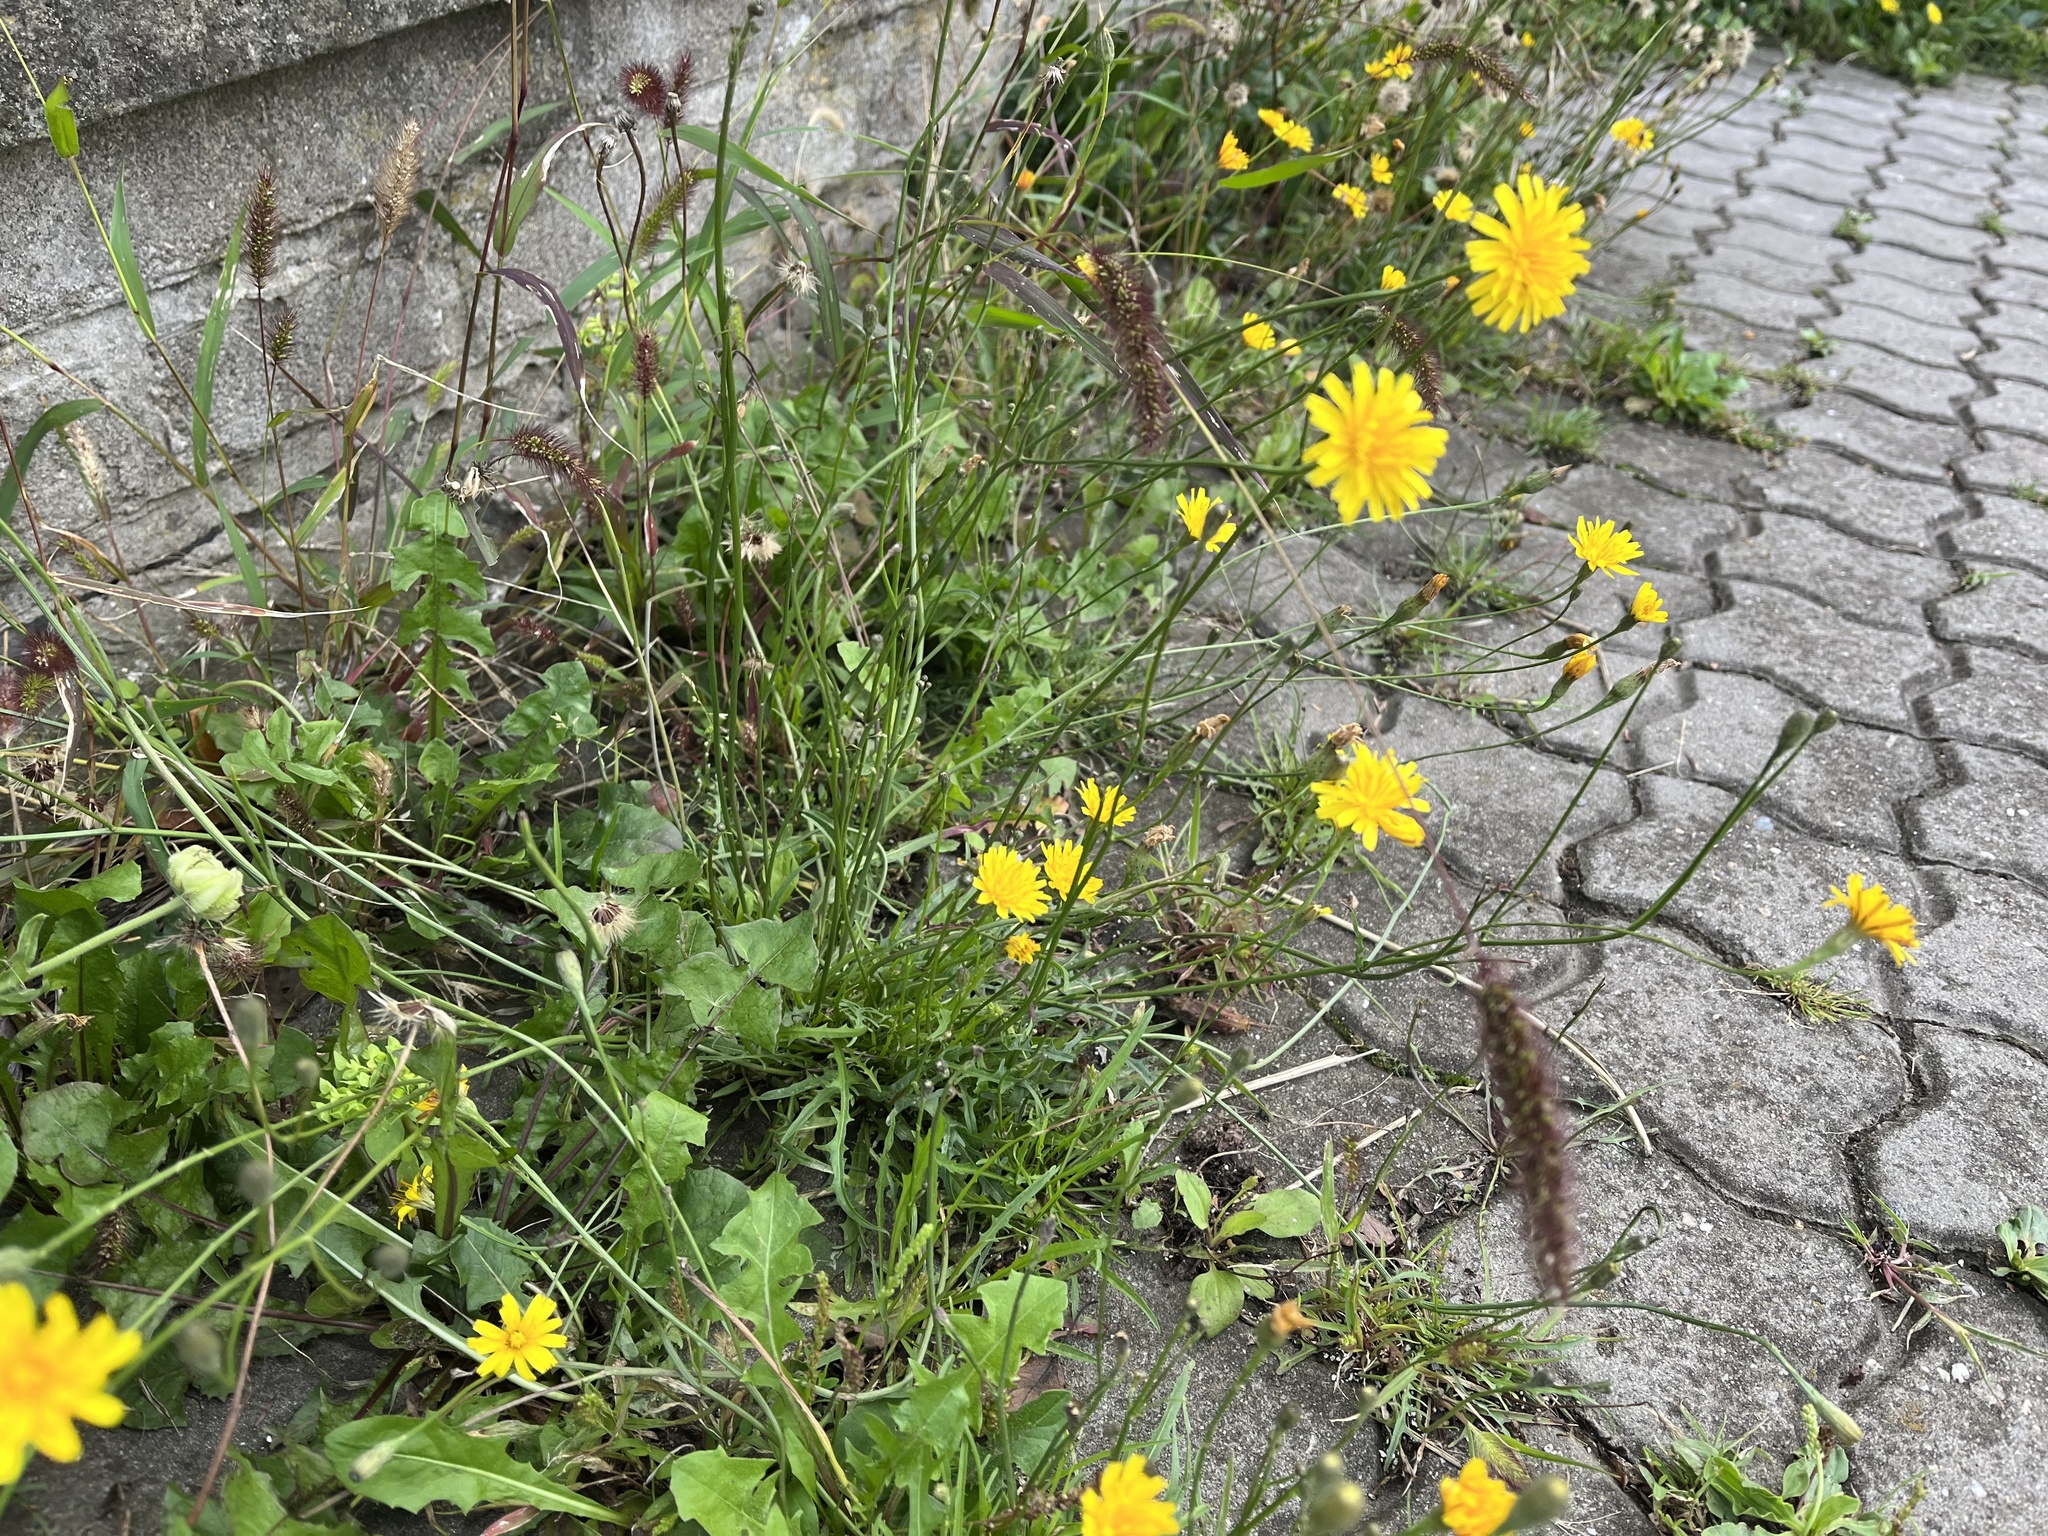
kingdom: Plantae
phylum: Tracheophyta
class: Magnoliopsida
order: Asterales
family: Asteraceae
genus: Scorzoneroides
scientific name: Scorzoneroides autumnalis
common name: Autumn hawkbit
